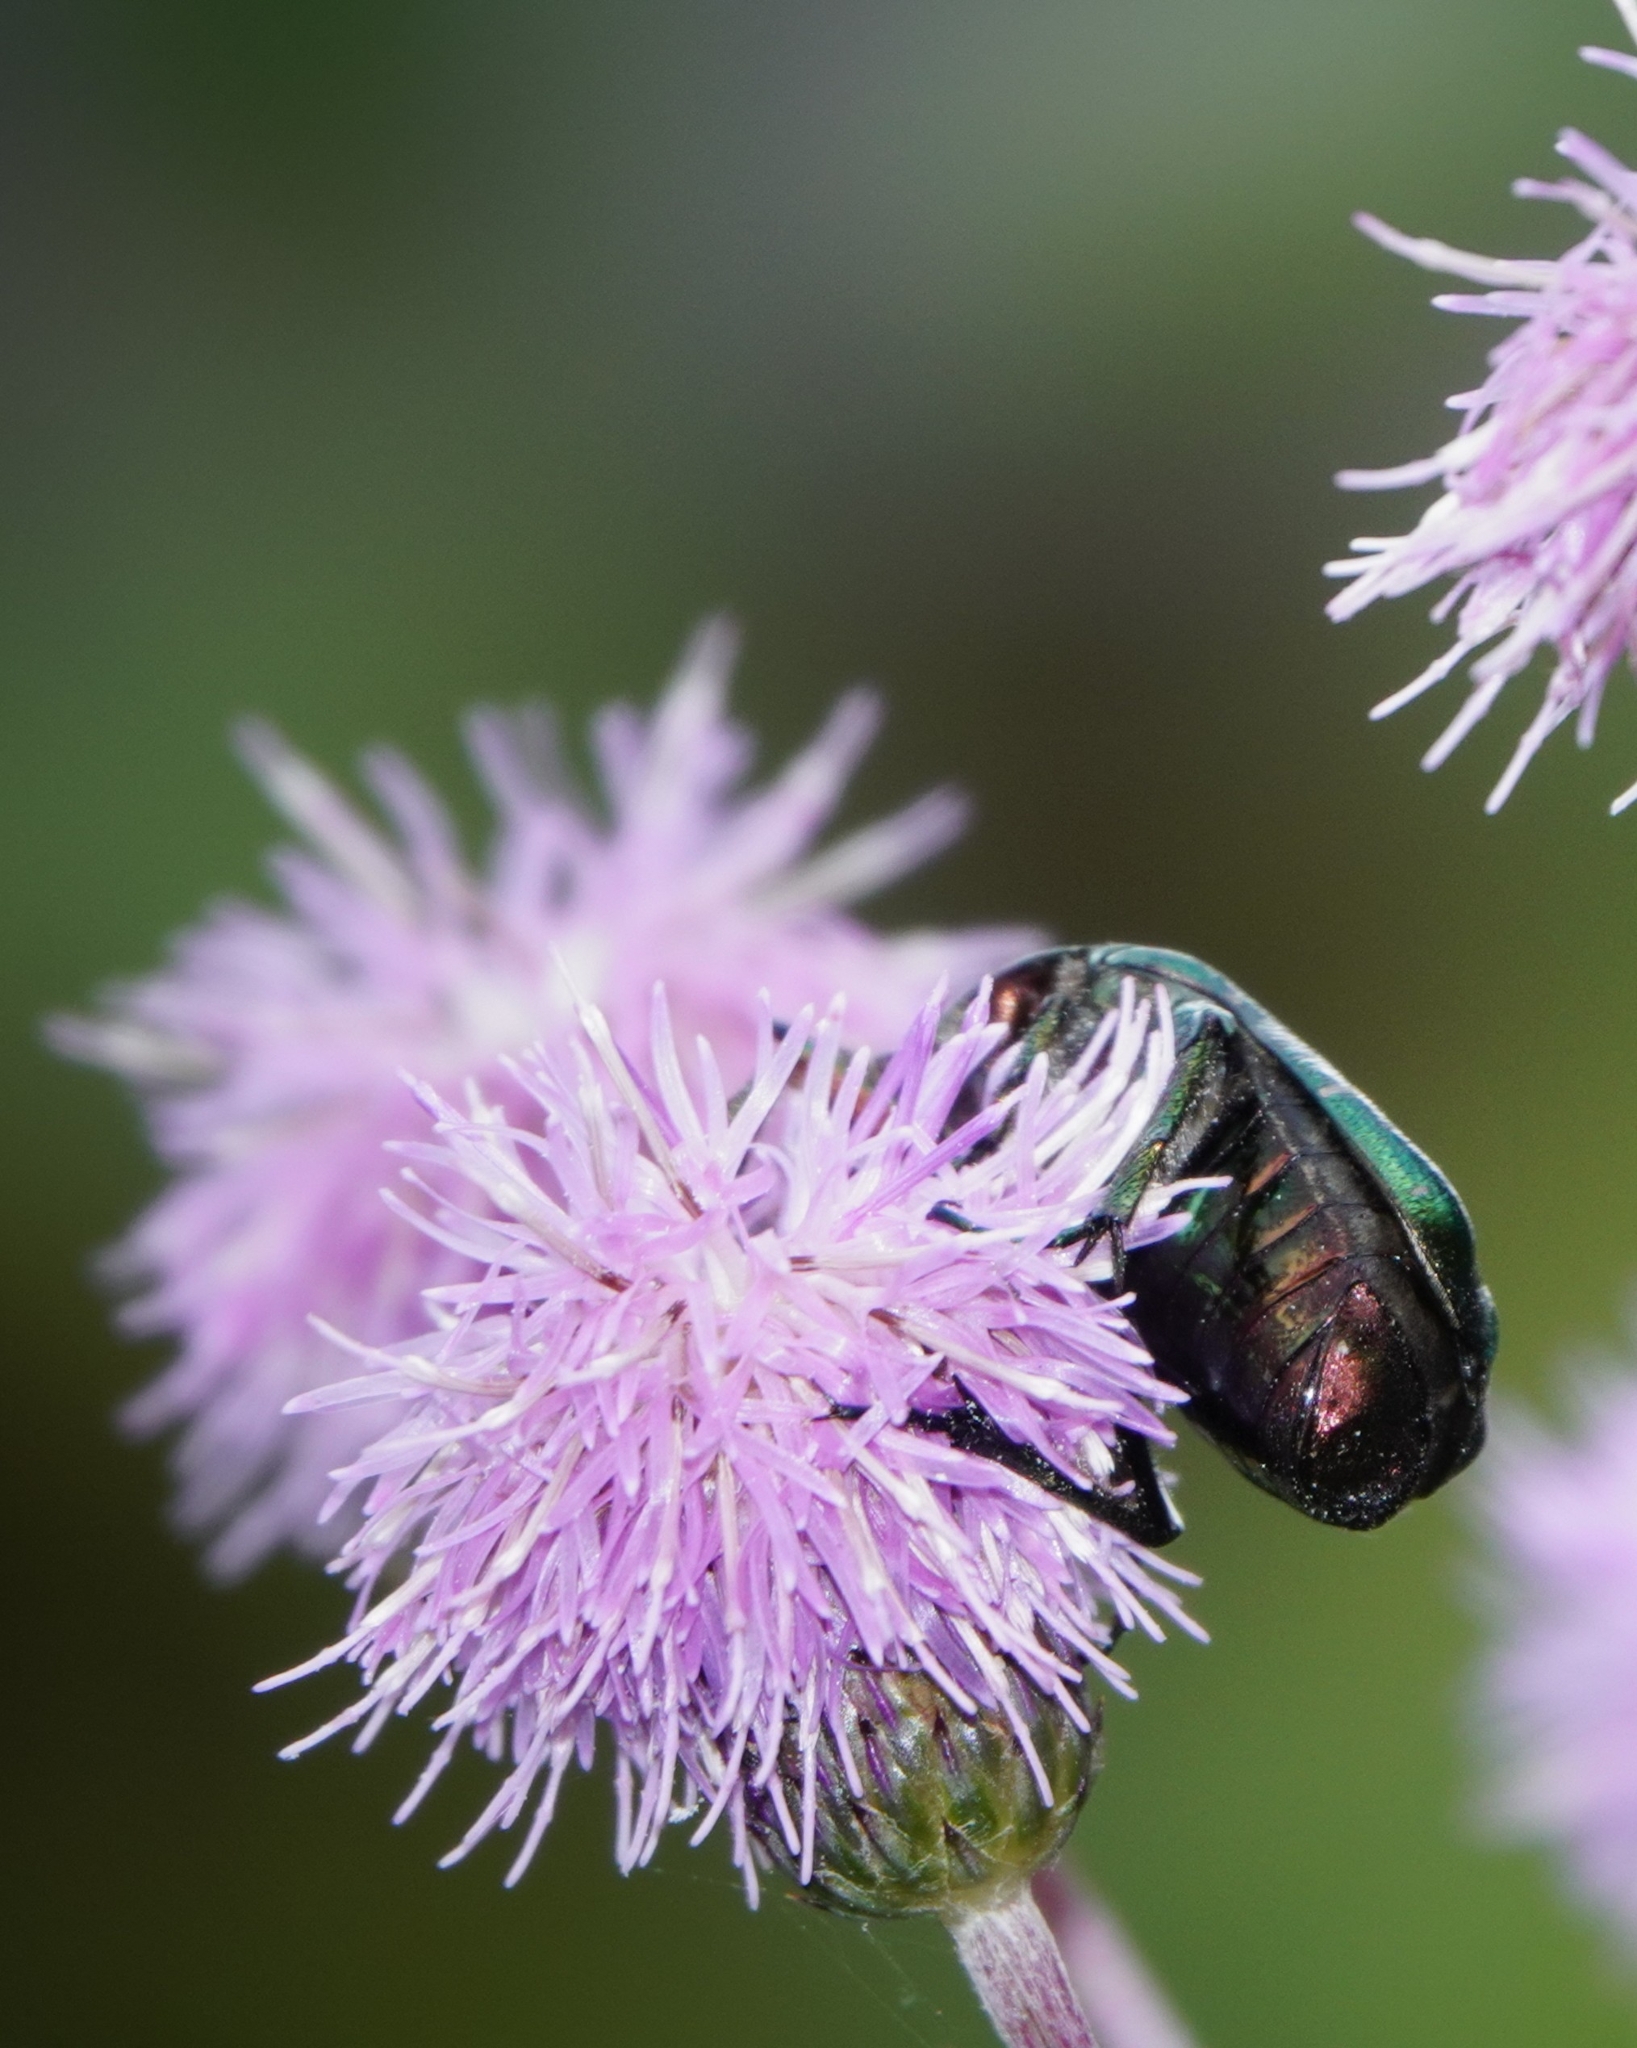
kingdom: Animalia
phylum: Arthropoda
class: Insecta
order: Coleoptera
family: Scarabaeidae
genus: Cetonia
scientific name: Cetonia aurata
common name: Rose chafer
